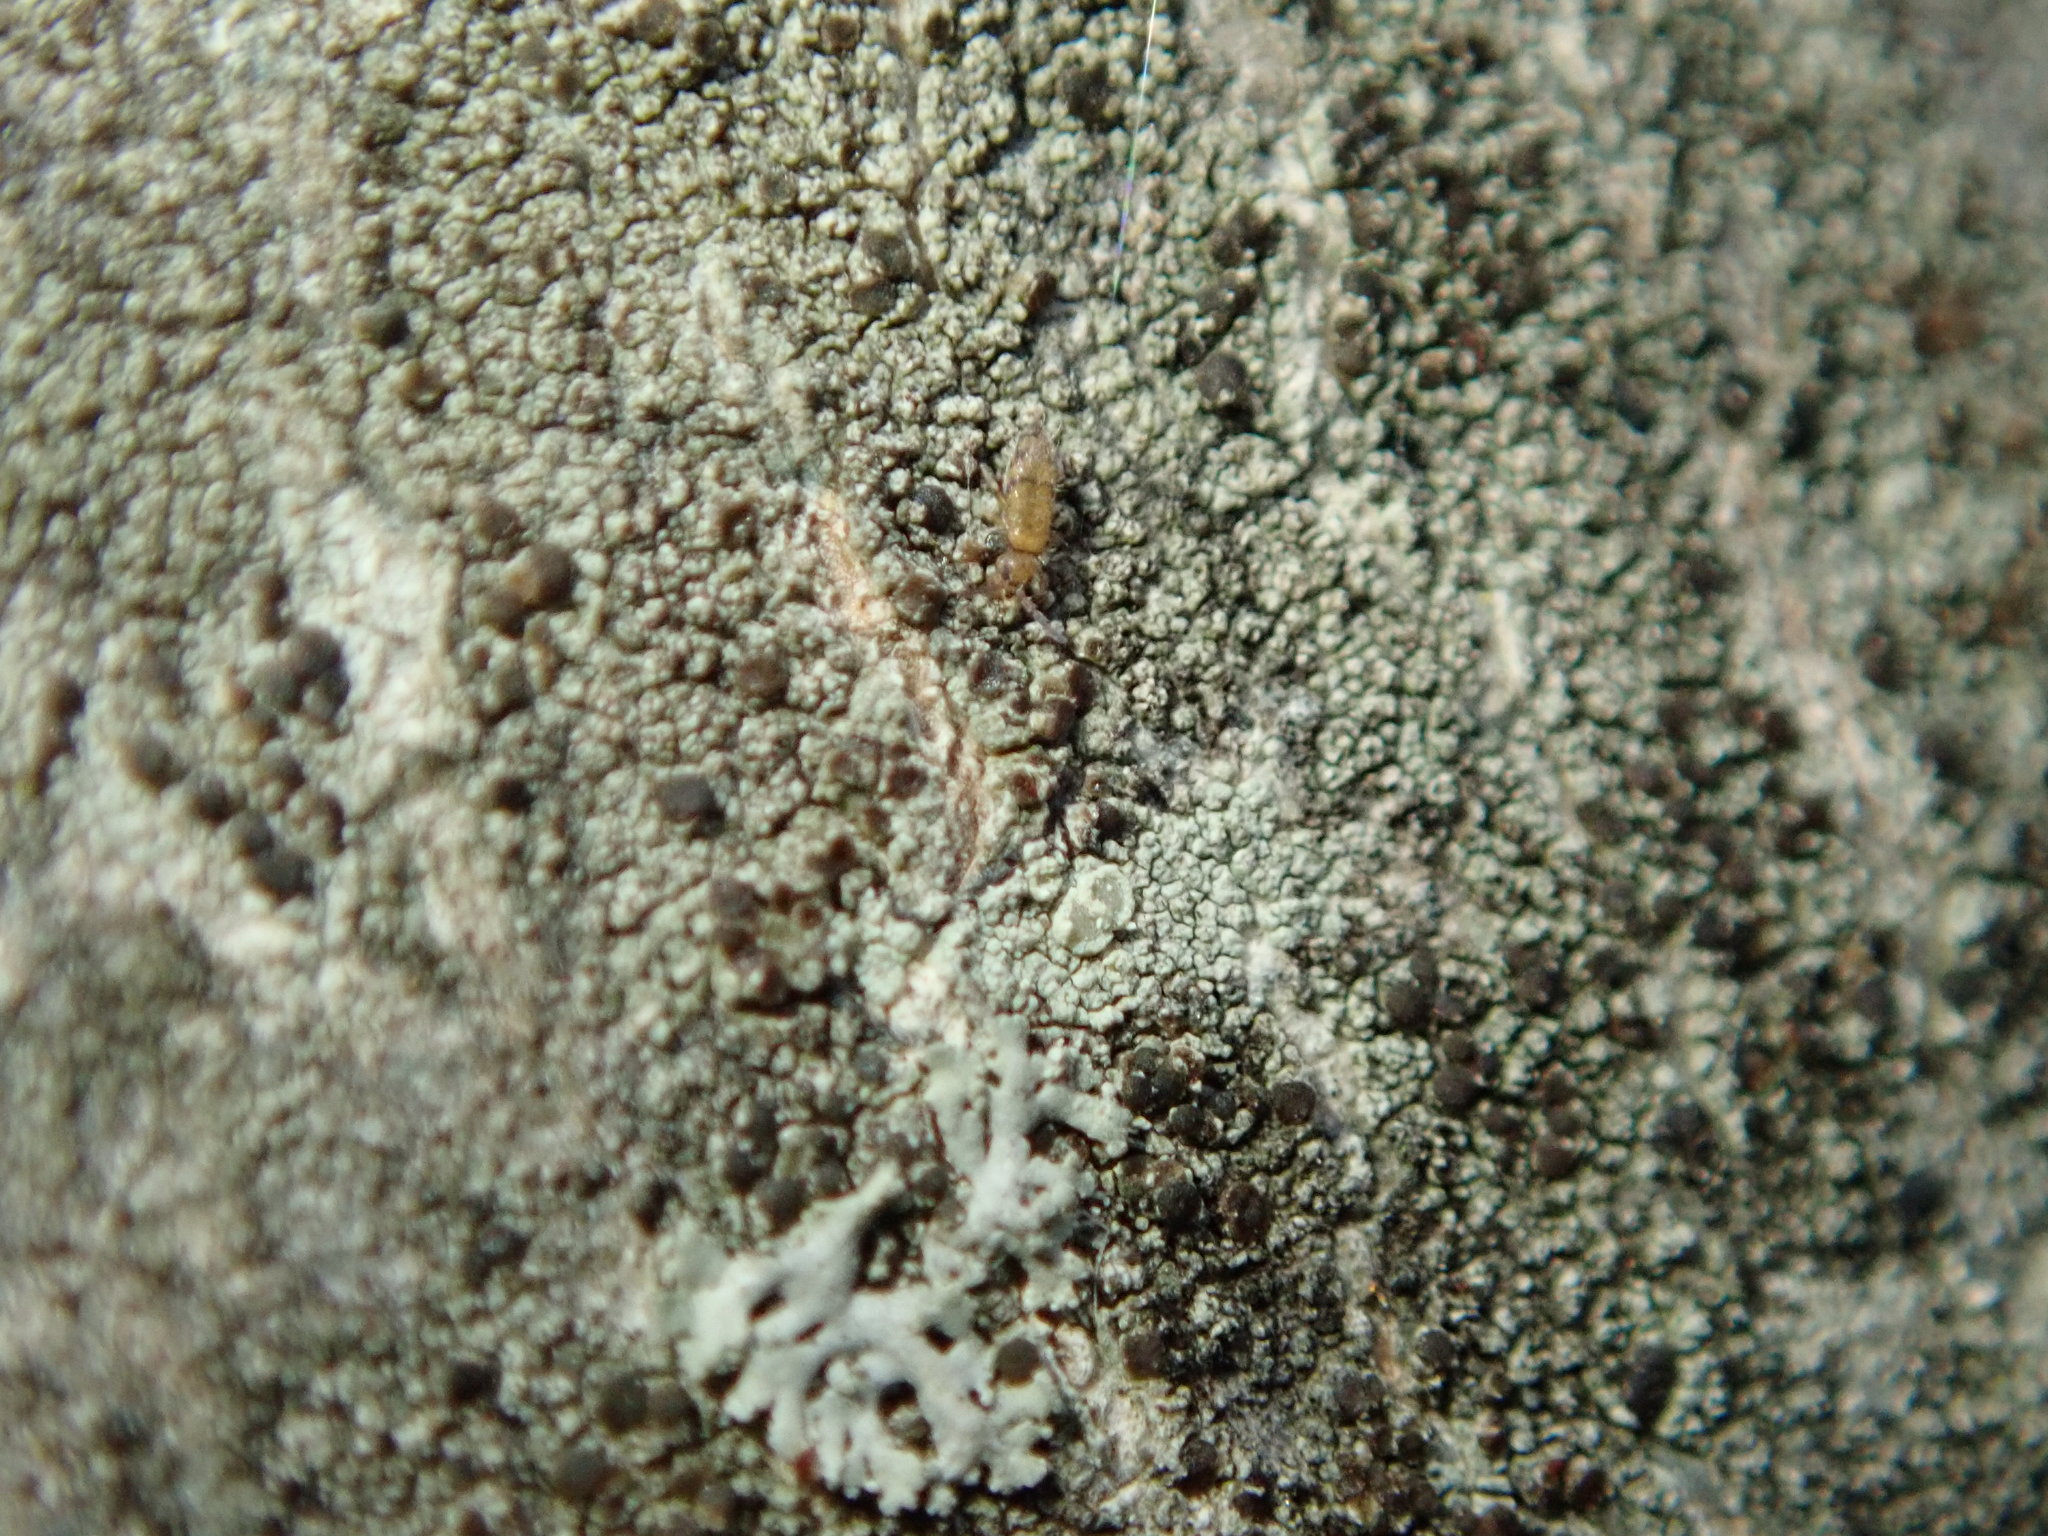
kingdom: Animalia
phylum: Arthropoda
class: Collembola
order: Entomobryomorpha
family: Entomobryidae
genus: Willowsia
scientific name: Willowsia nigromaculata
